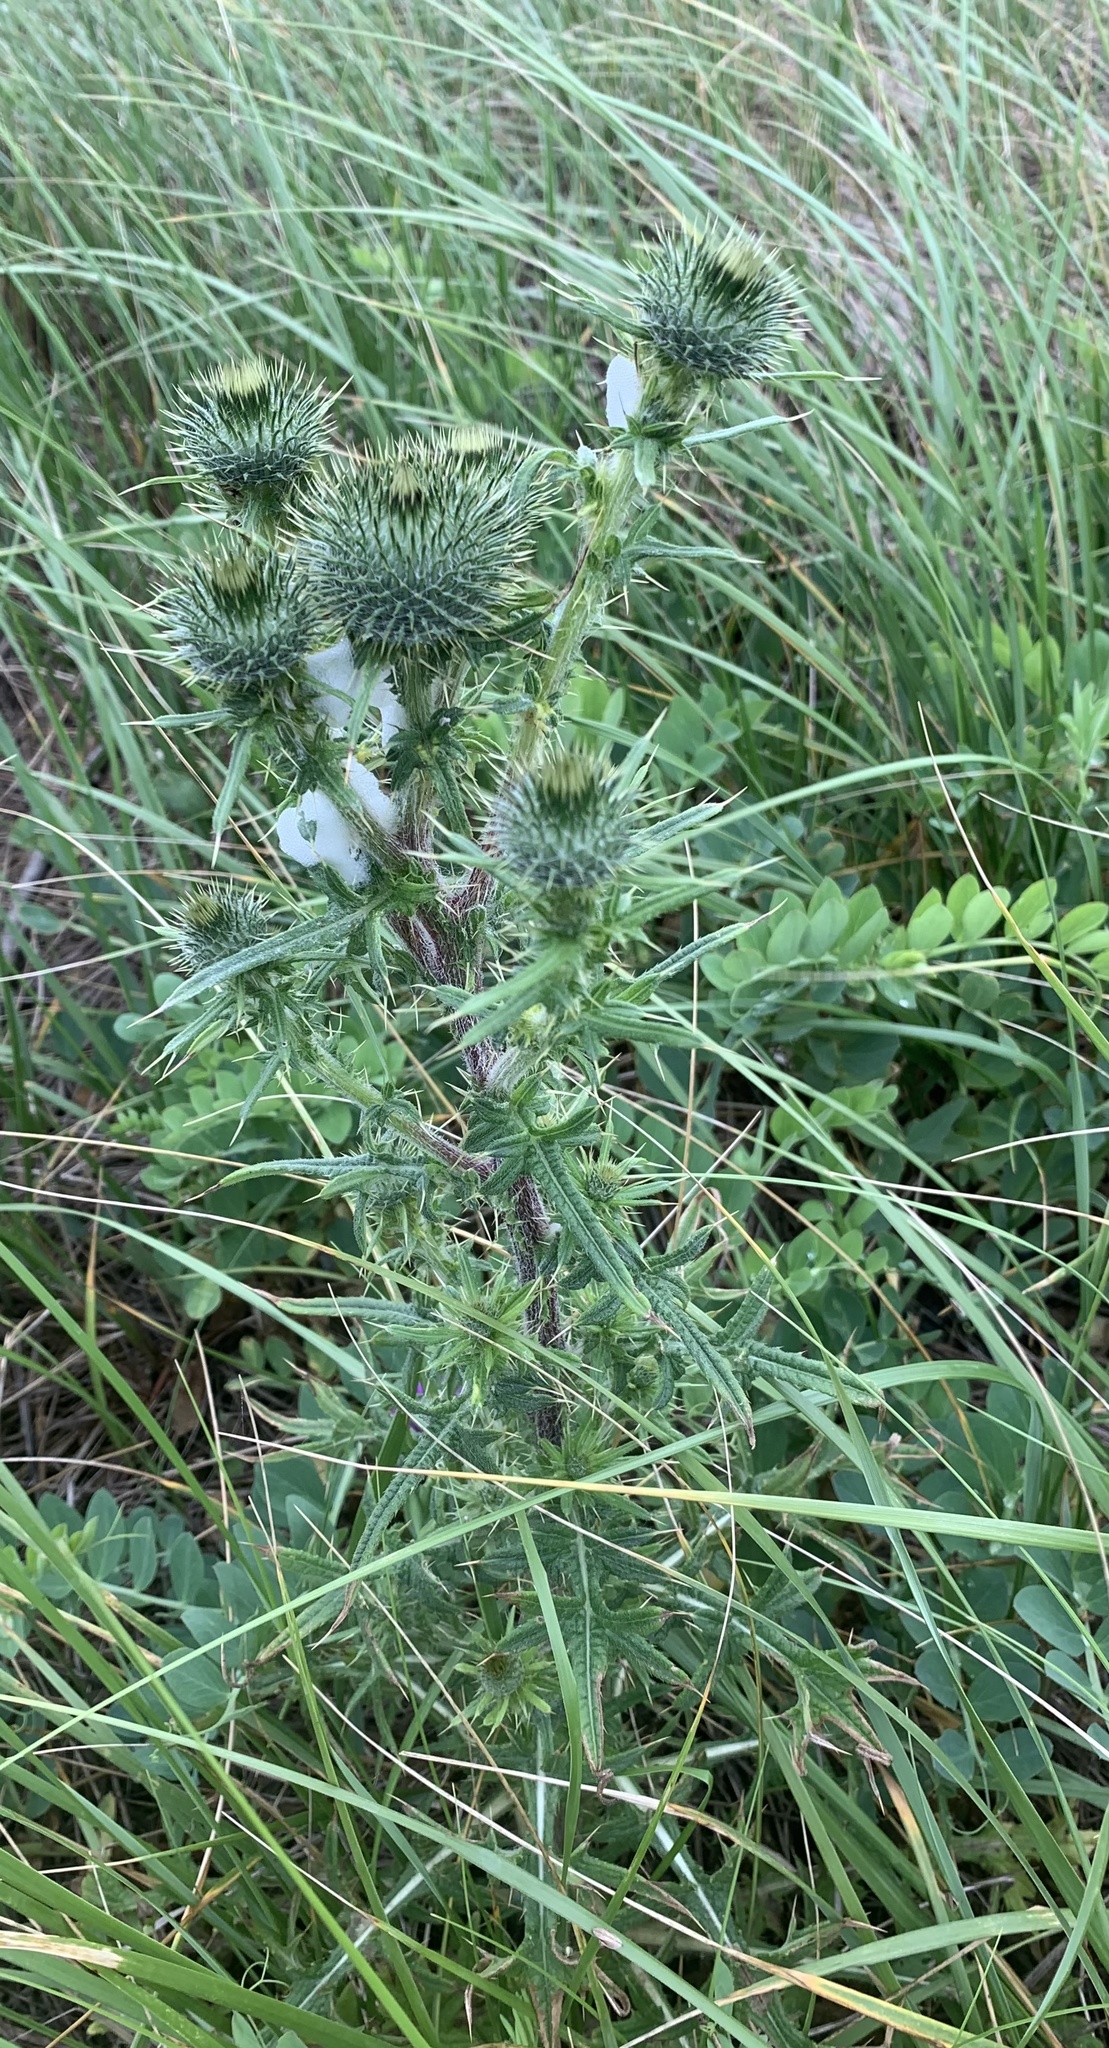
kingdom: Plantae
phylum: Tracheophyta
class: Magnoliopsida
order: Asterales
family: Asteraceae
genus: Cirsium
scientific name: Cirsium vulgare
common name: Bull thistle
